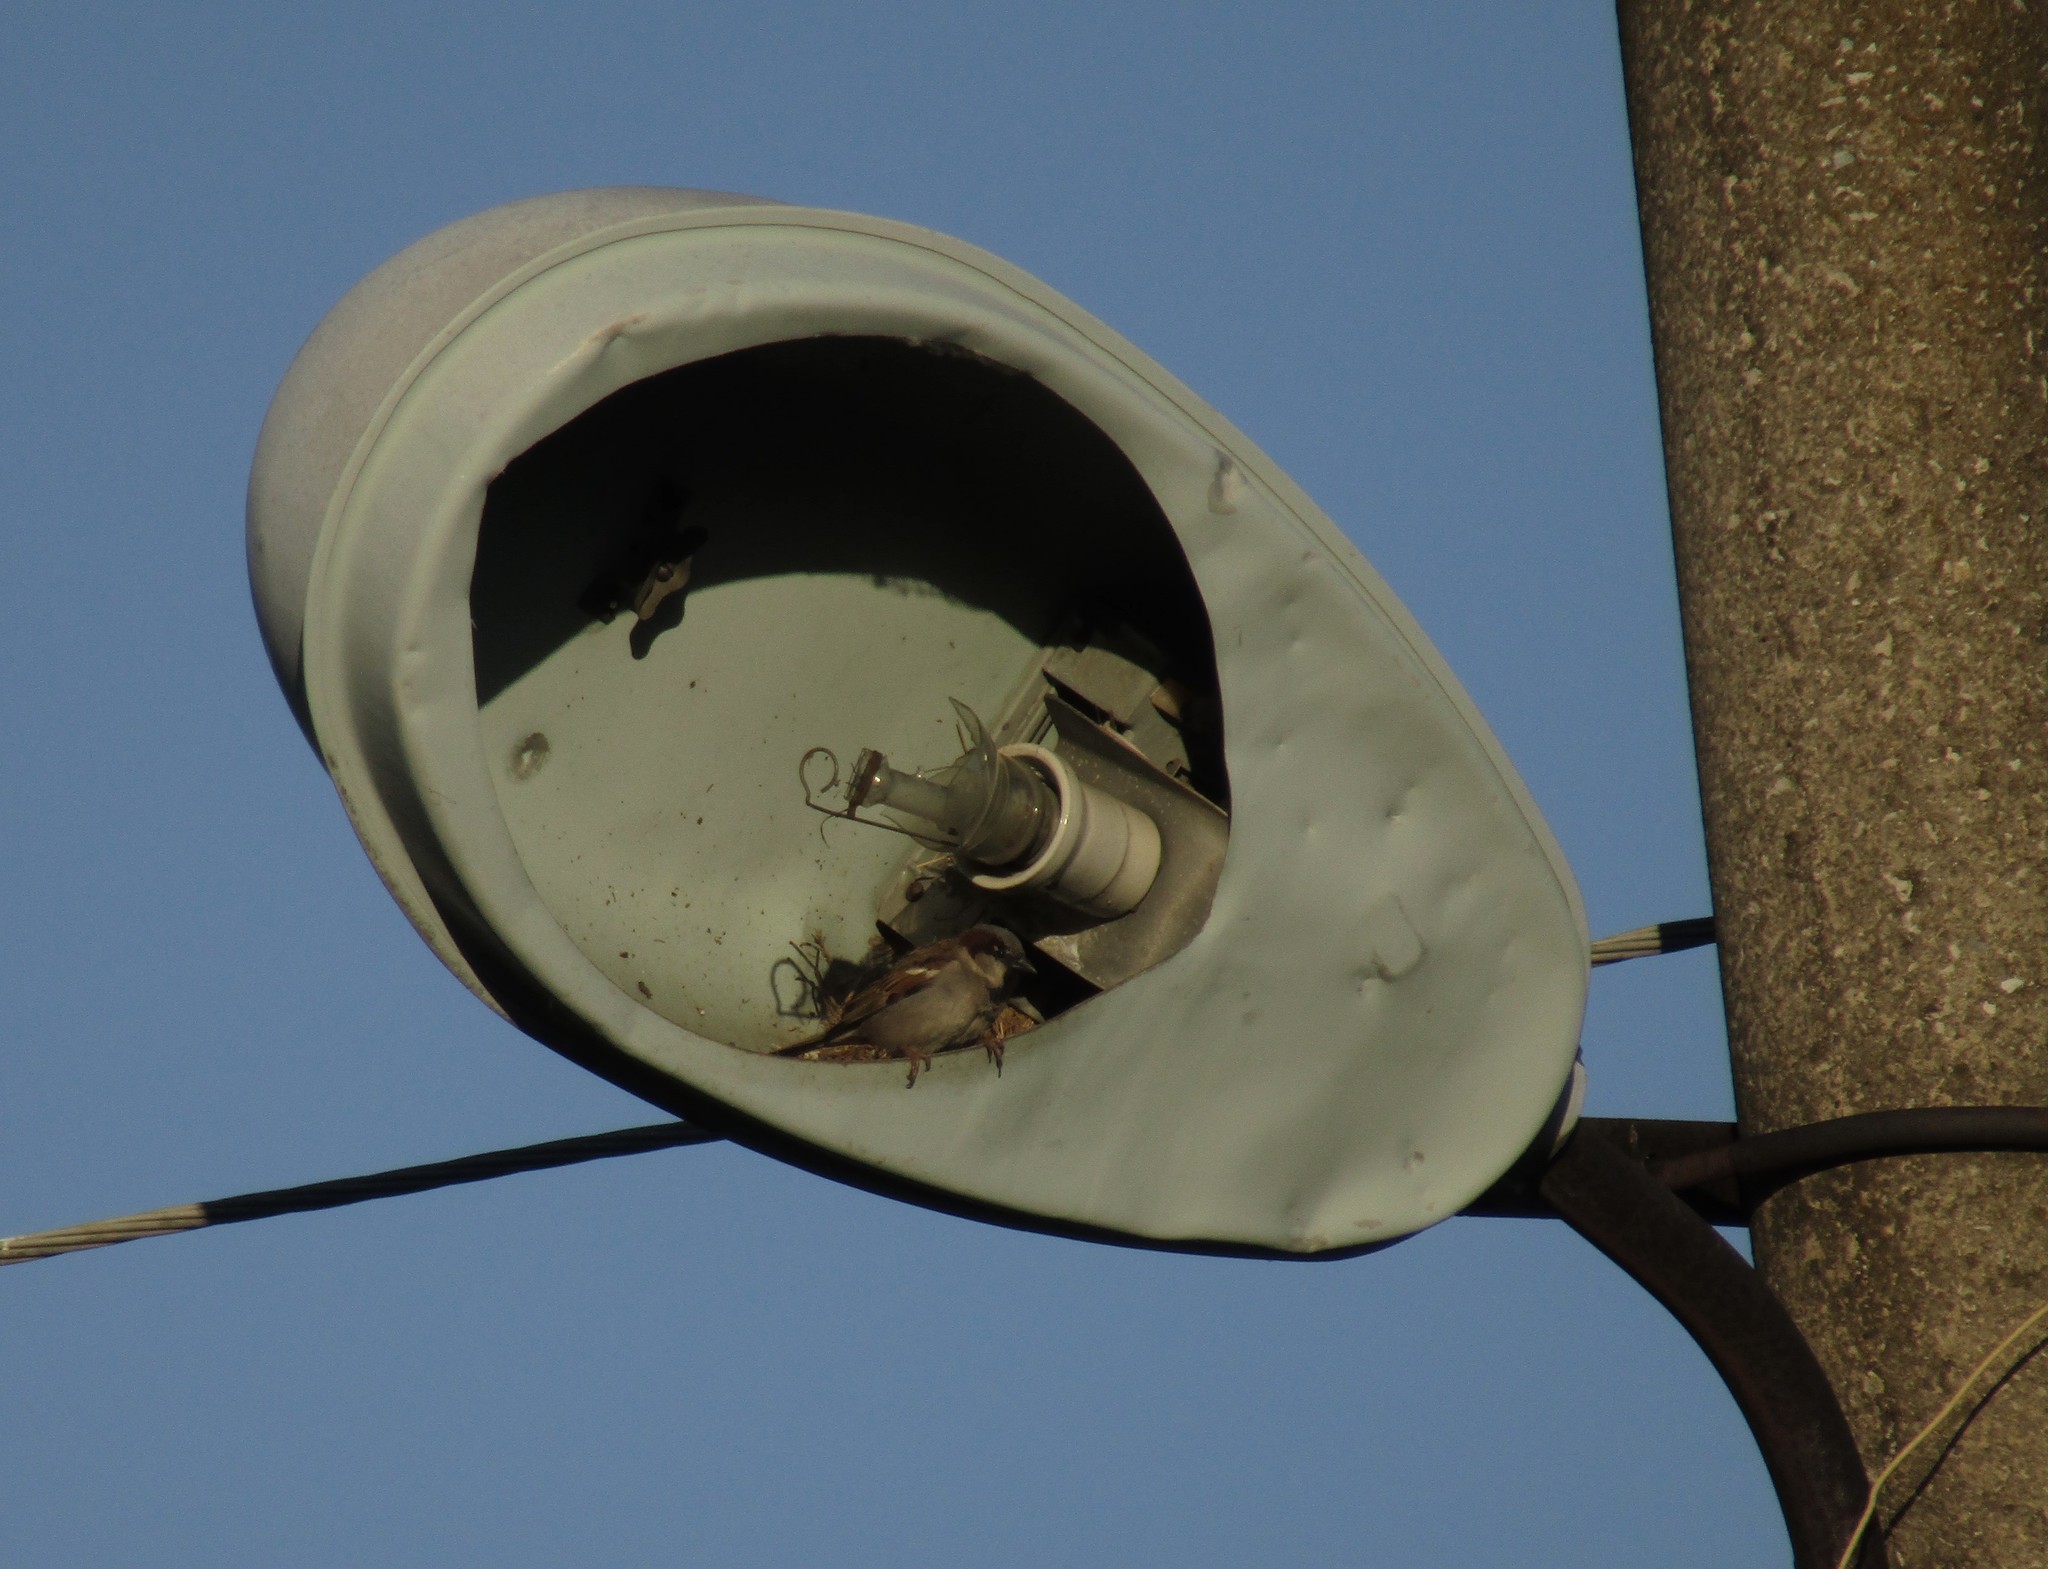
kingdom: Animalia
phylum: Chordata
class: Aves
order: Passeriformes
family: Passeridae
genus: Passer
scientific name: Passer domesticus
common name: House sparrow
